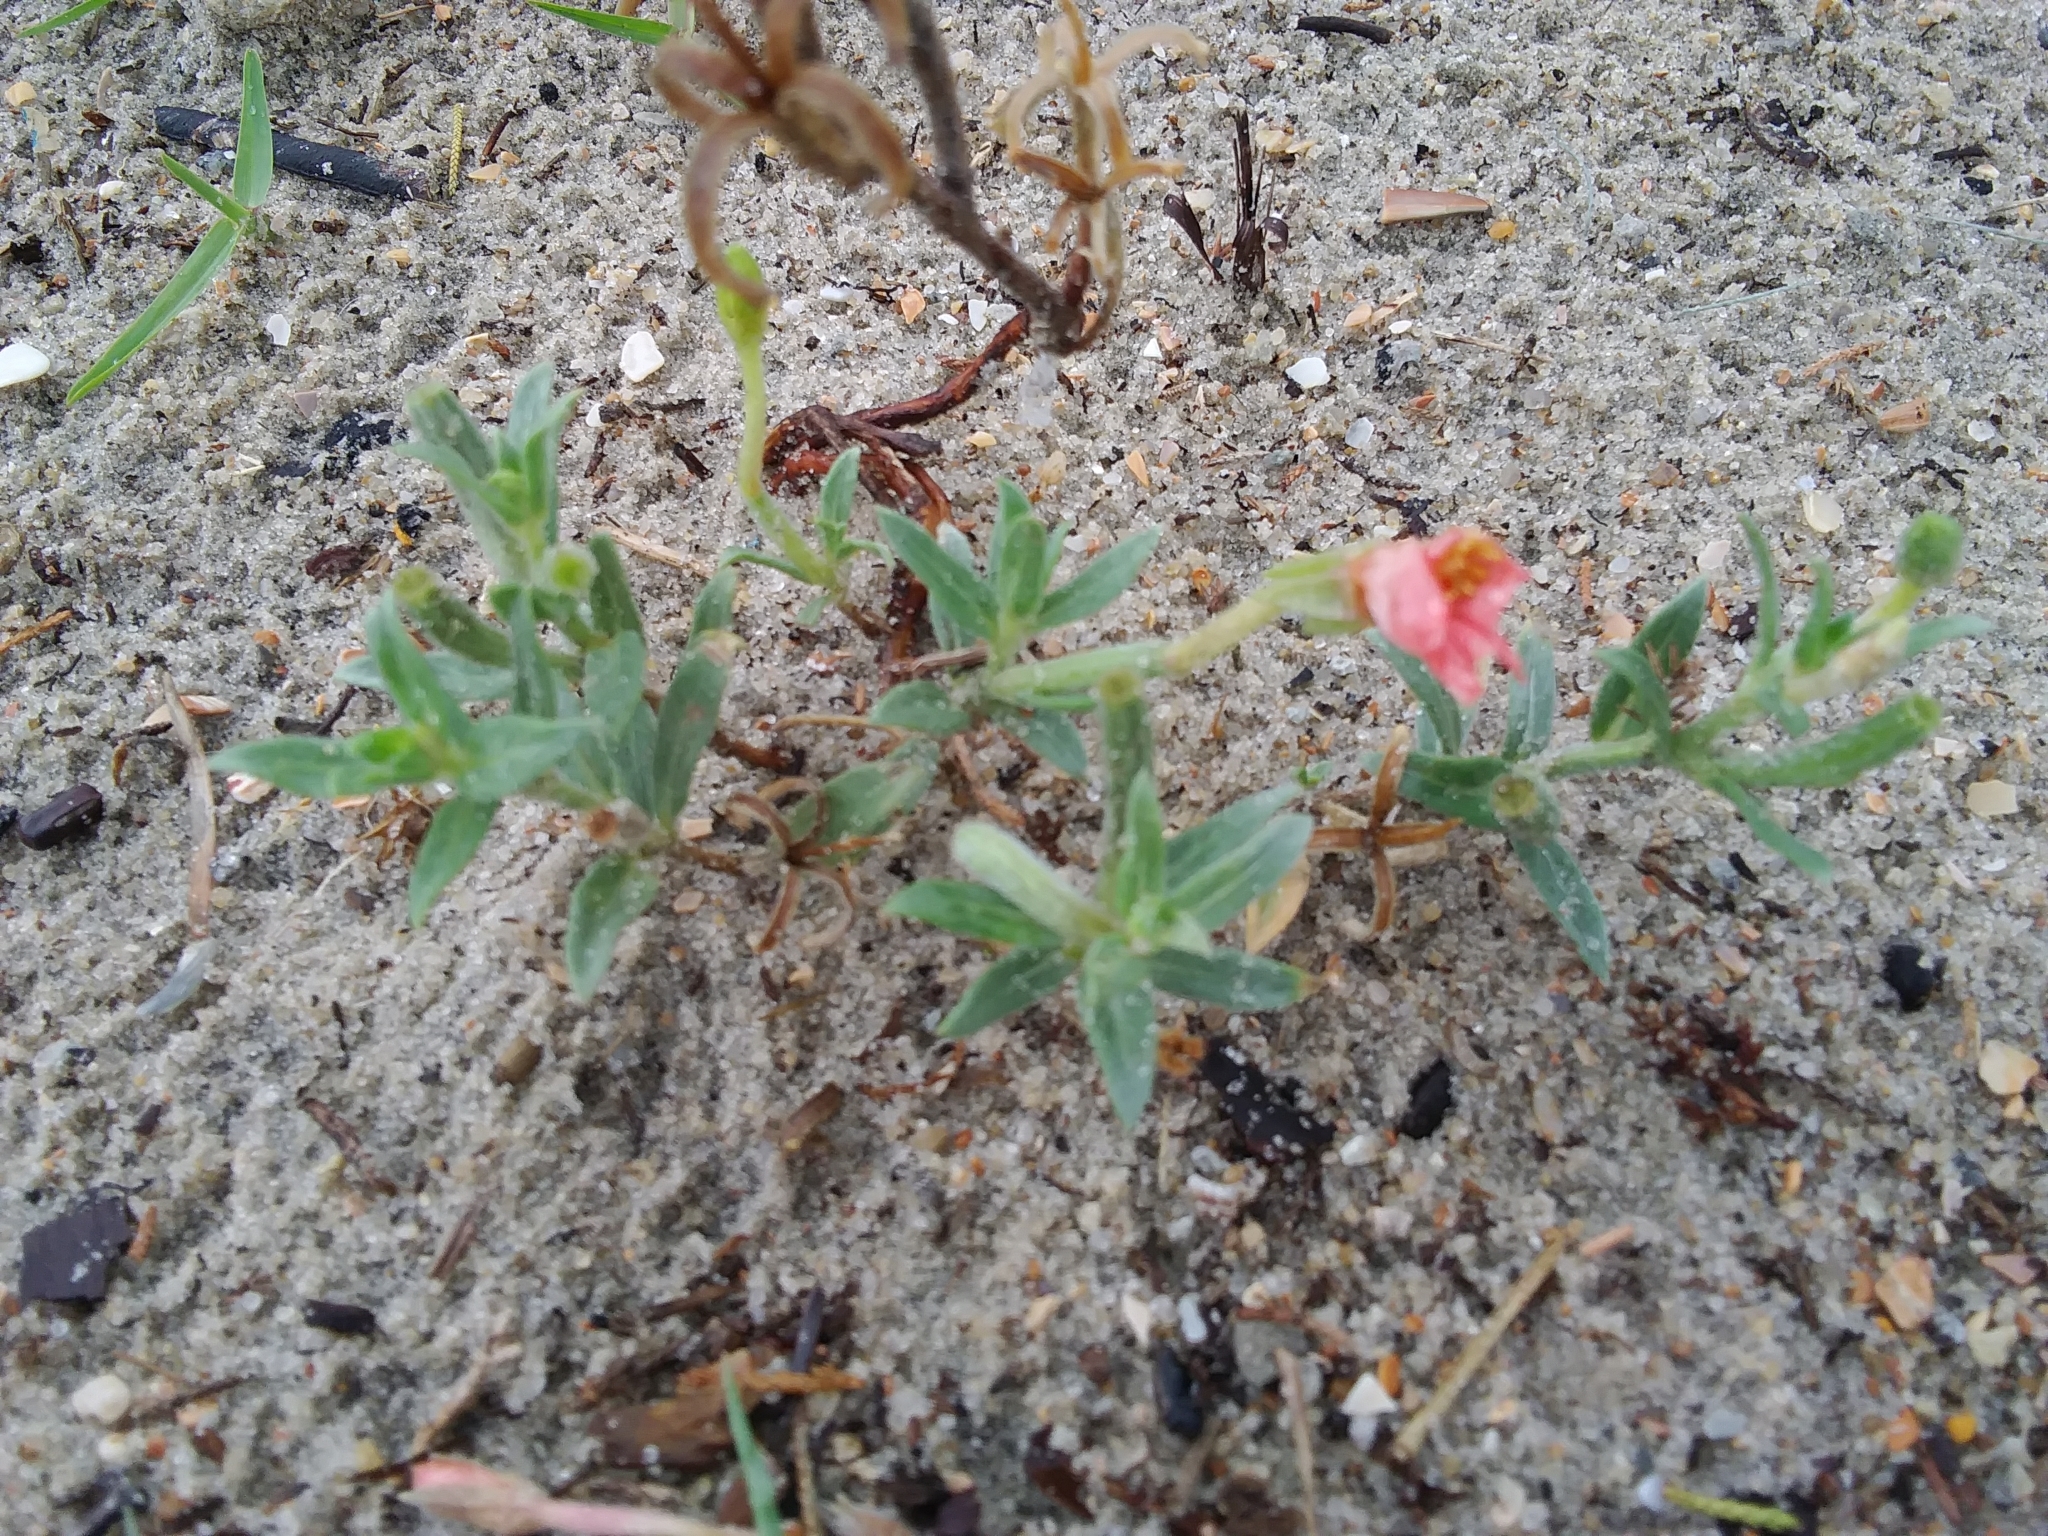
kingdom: Plantae
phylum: Tracheophyta
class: Magnoliopsida
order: Myrtales
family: Onagraceae
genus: Oenothera
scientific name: Oenothera humifusa
